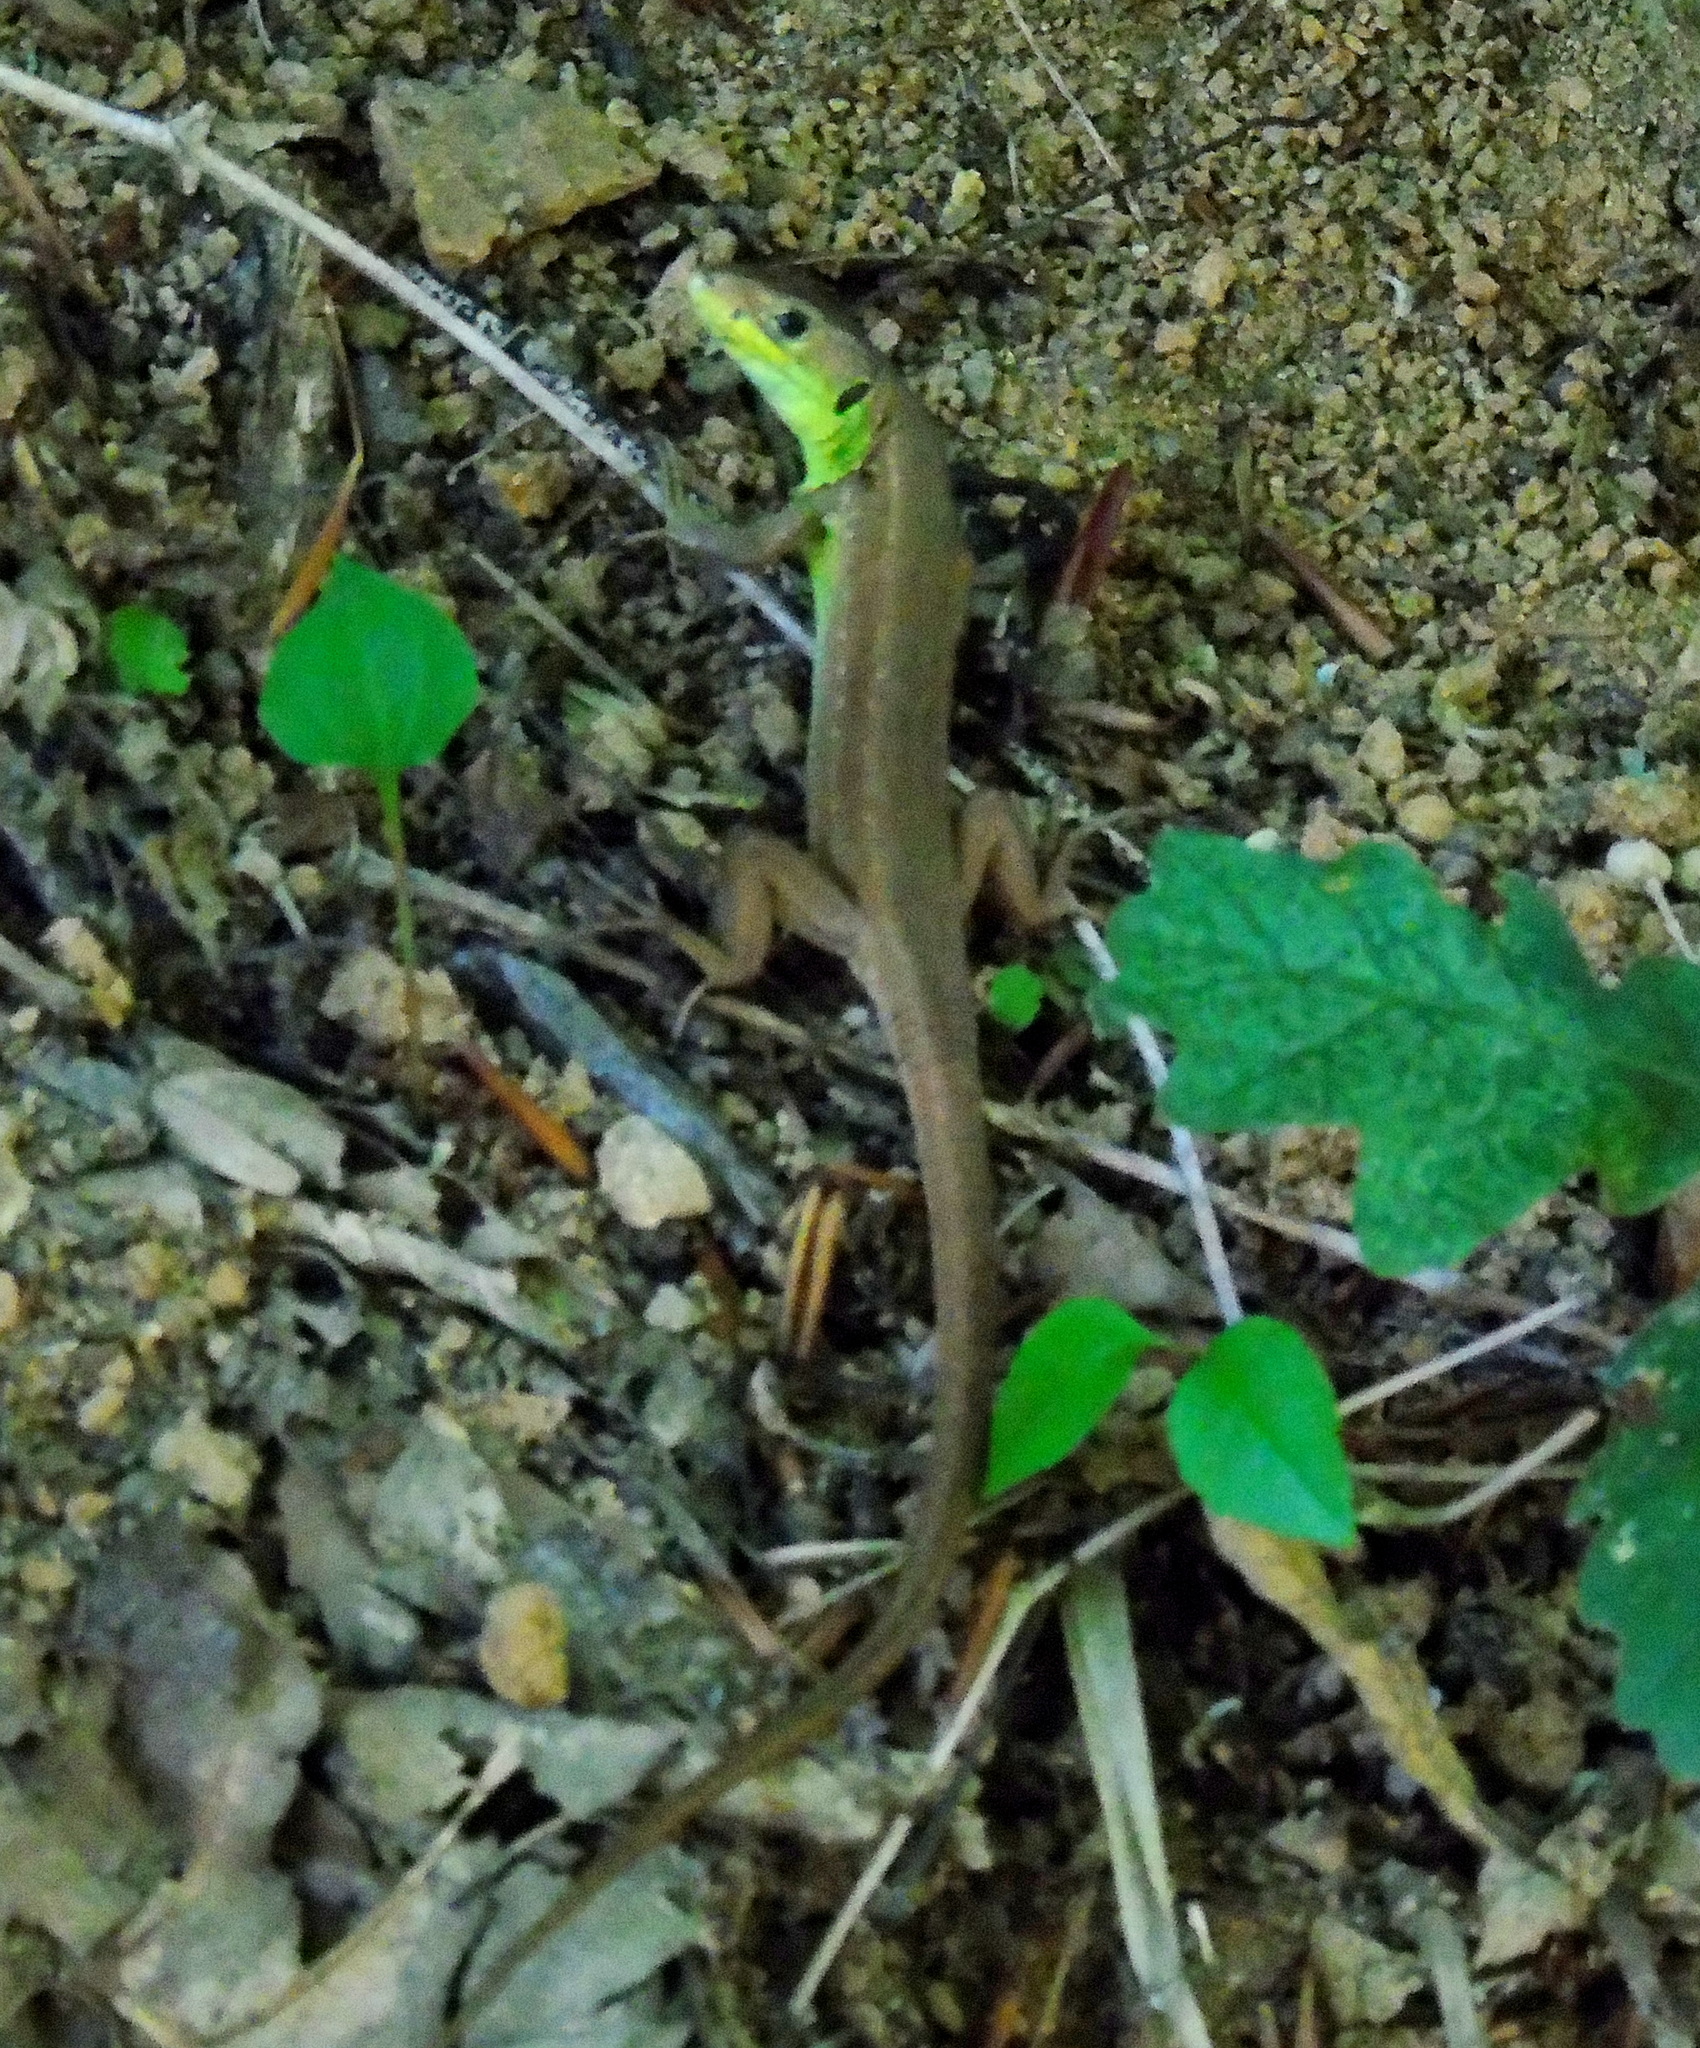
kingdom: Animalia
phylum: Chordata
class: Squamata
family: Lacertidae
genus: Lacerta
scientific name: Lacerta viridis
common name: European green lizard
